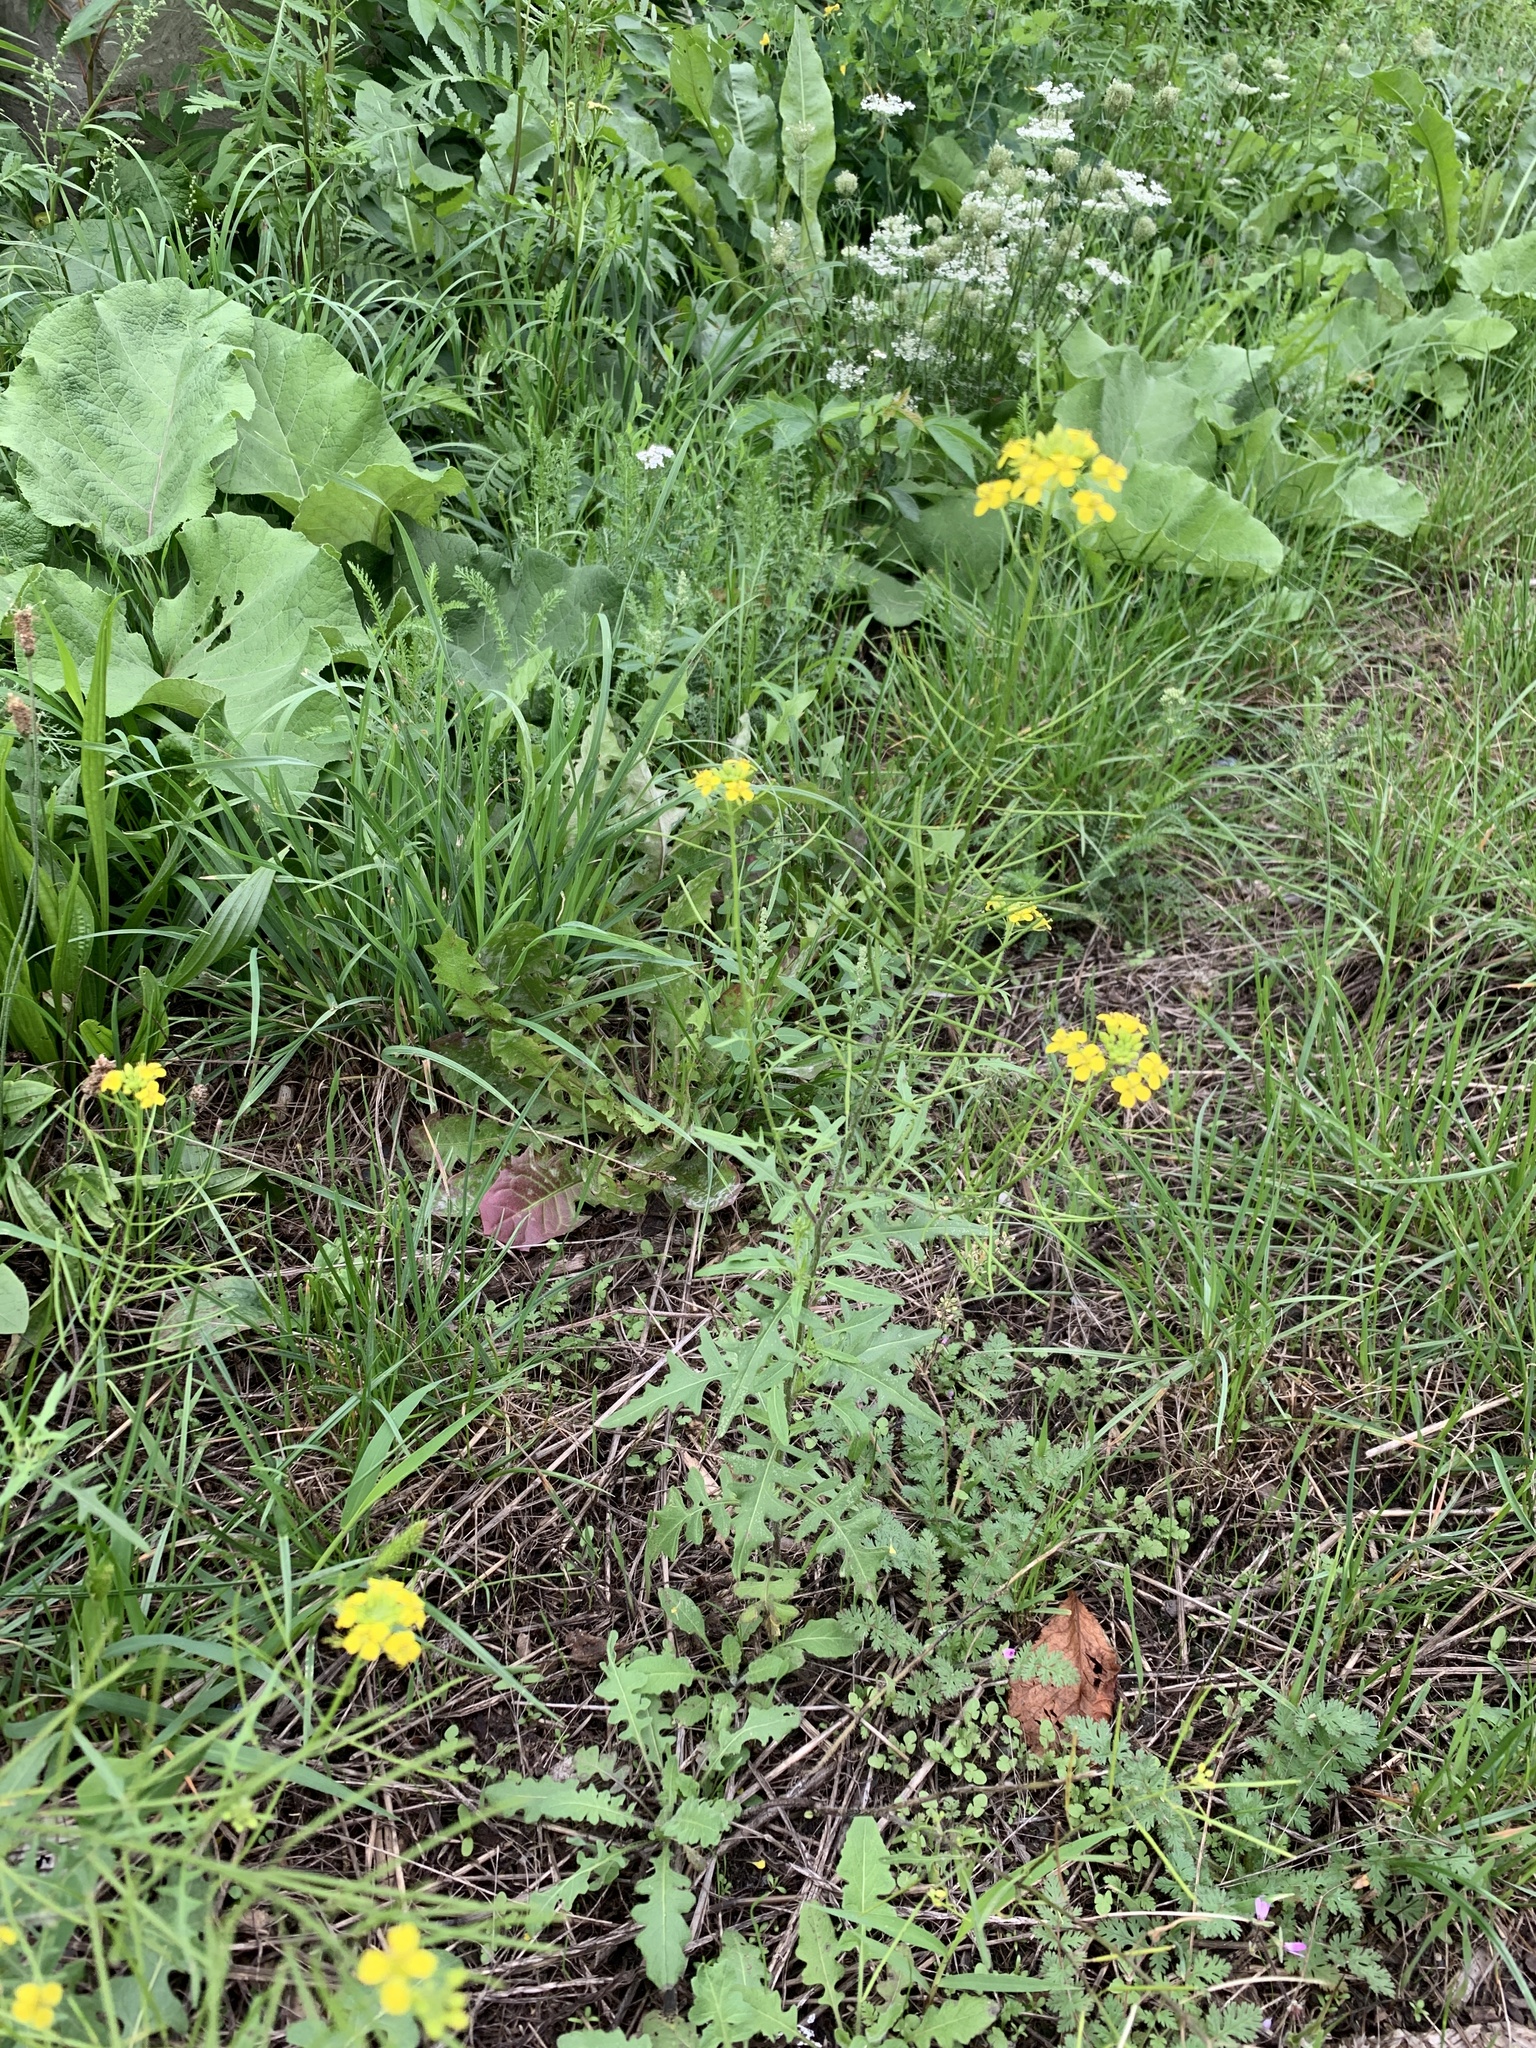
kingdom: Plantae
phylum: Tracheophyta
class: Magnoliopsida
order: Brassicales
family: Brassicaceae
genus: Sisymbrium
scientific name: Sisymbrium loeselii
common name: False london-rocket
